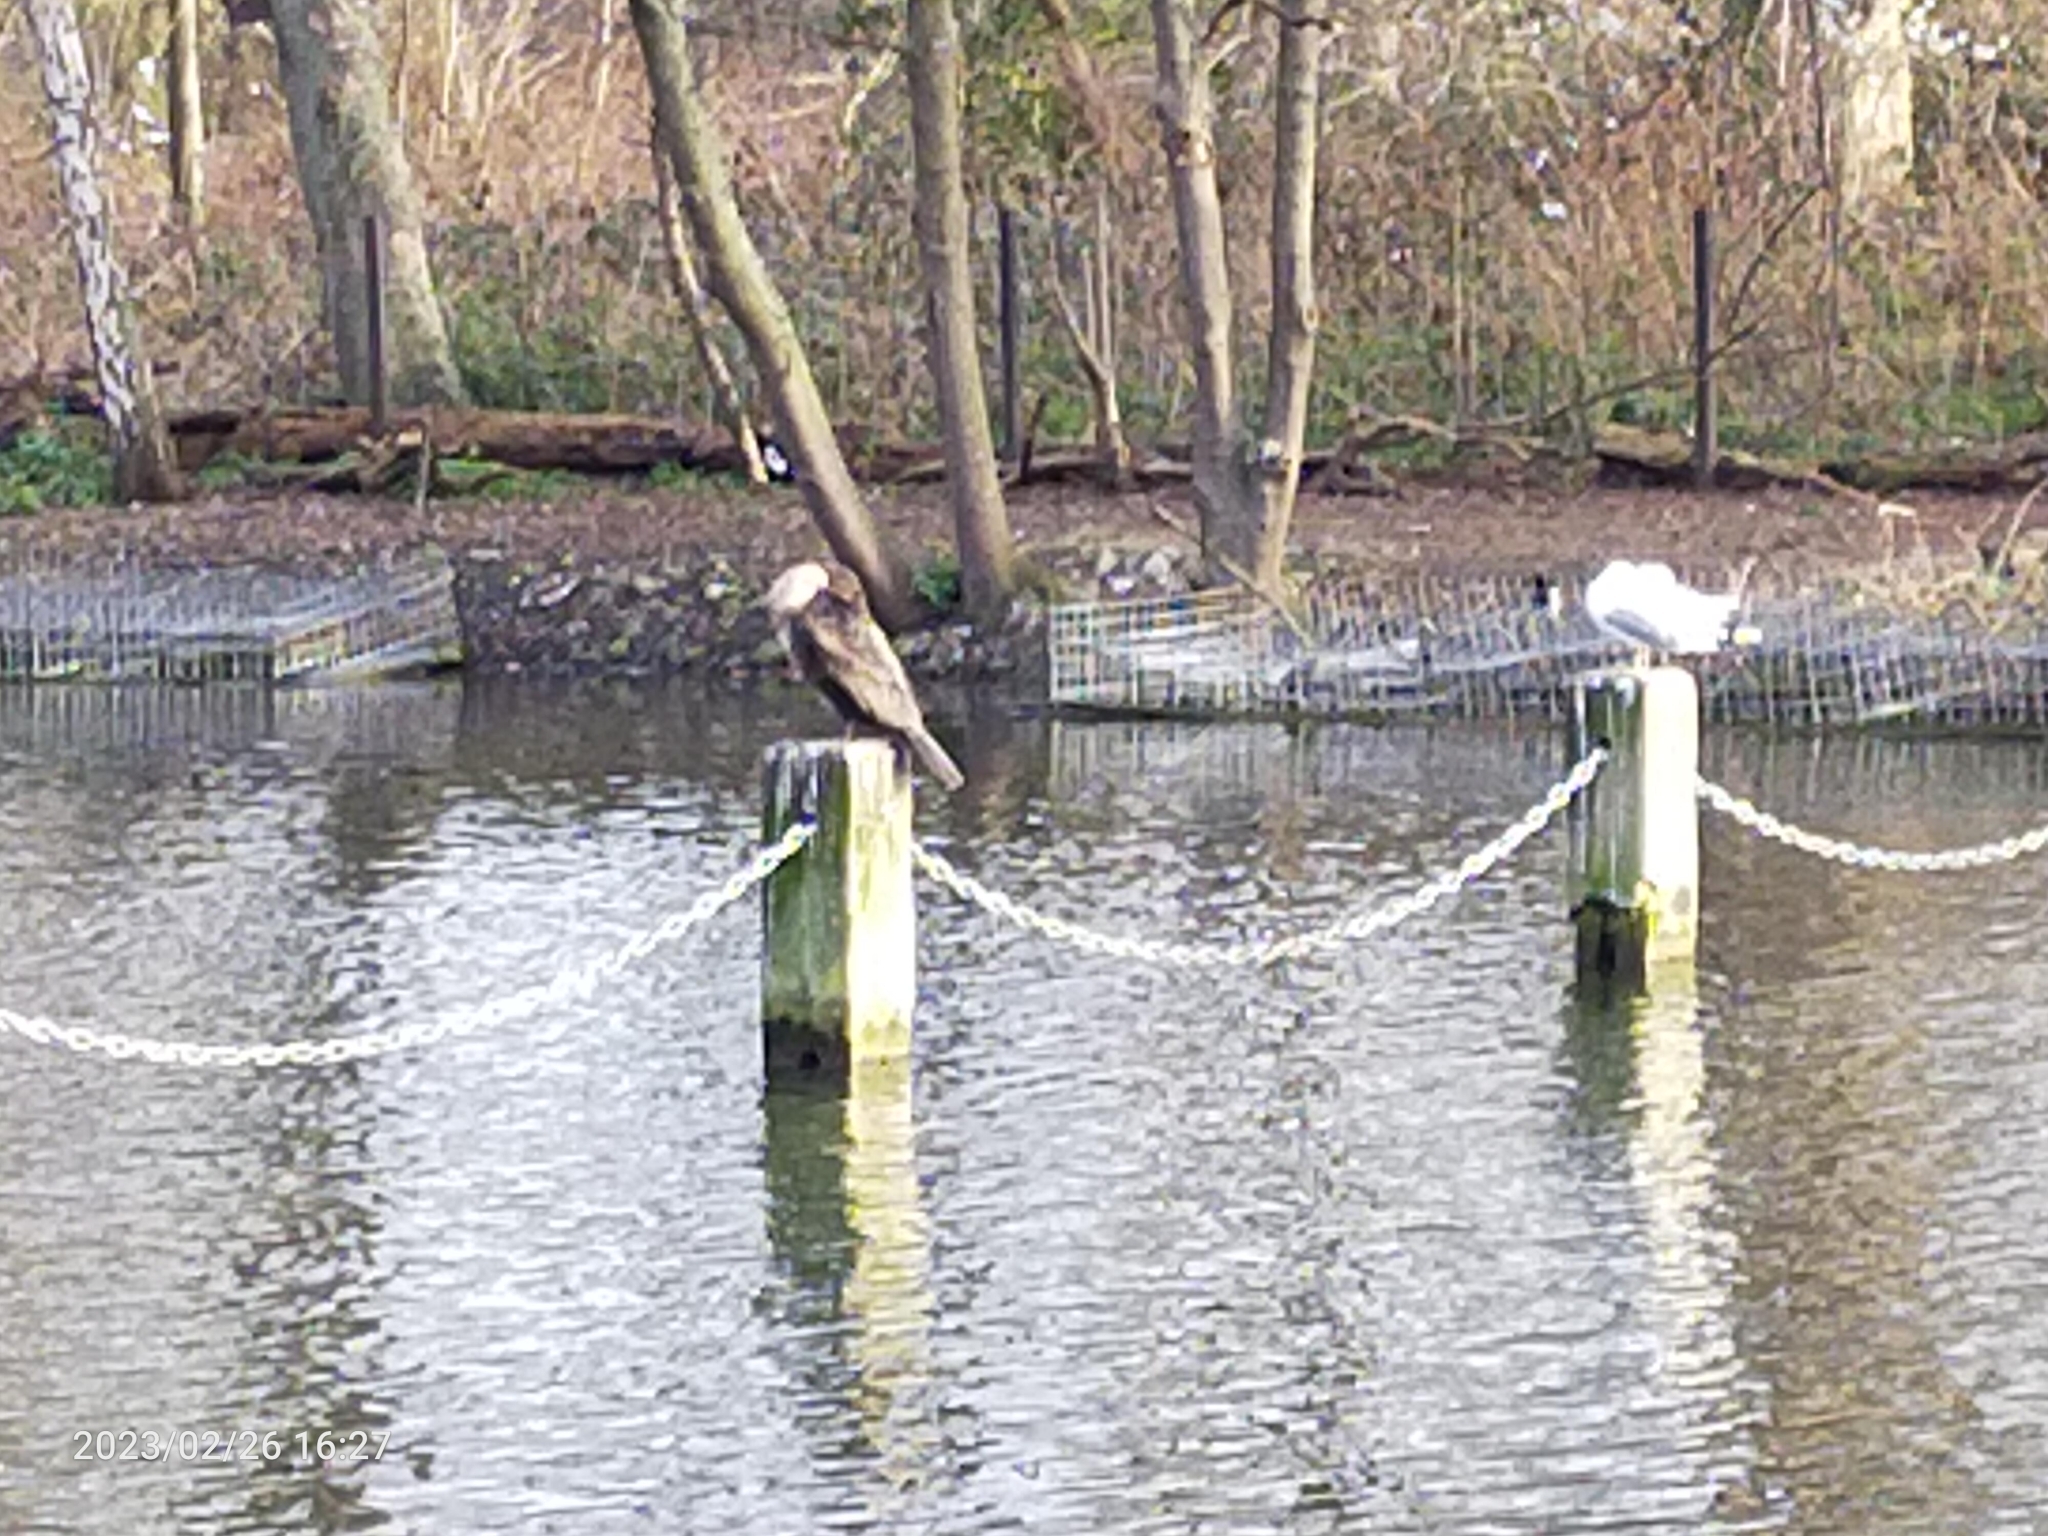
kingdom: Animalia
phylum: Chordata
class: Aves
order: Suliformes
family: Phalacrocoracidae
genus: Phalacrocorax
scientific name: Phalacrocorax carbo
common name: Great cormorant
